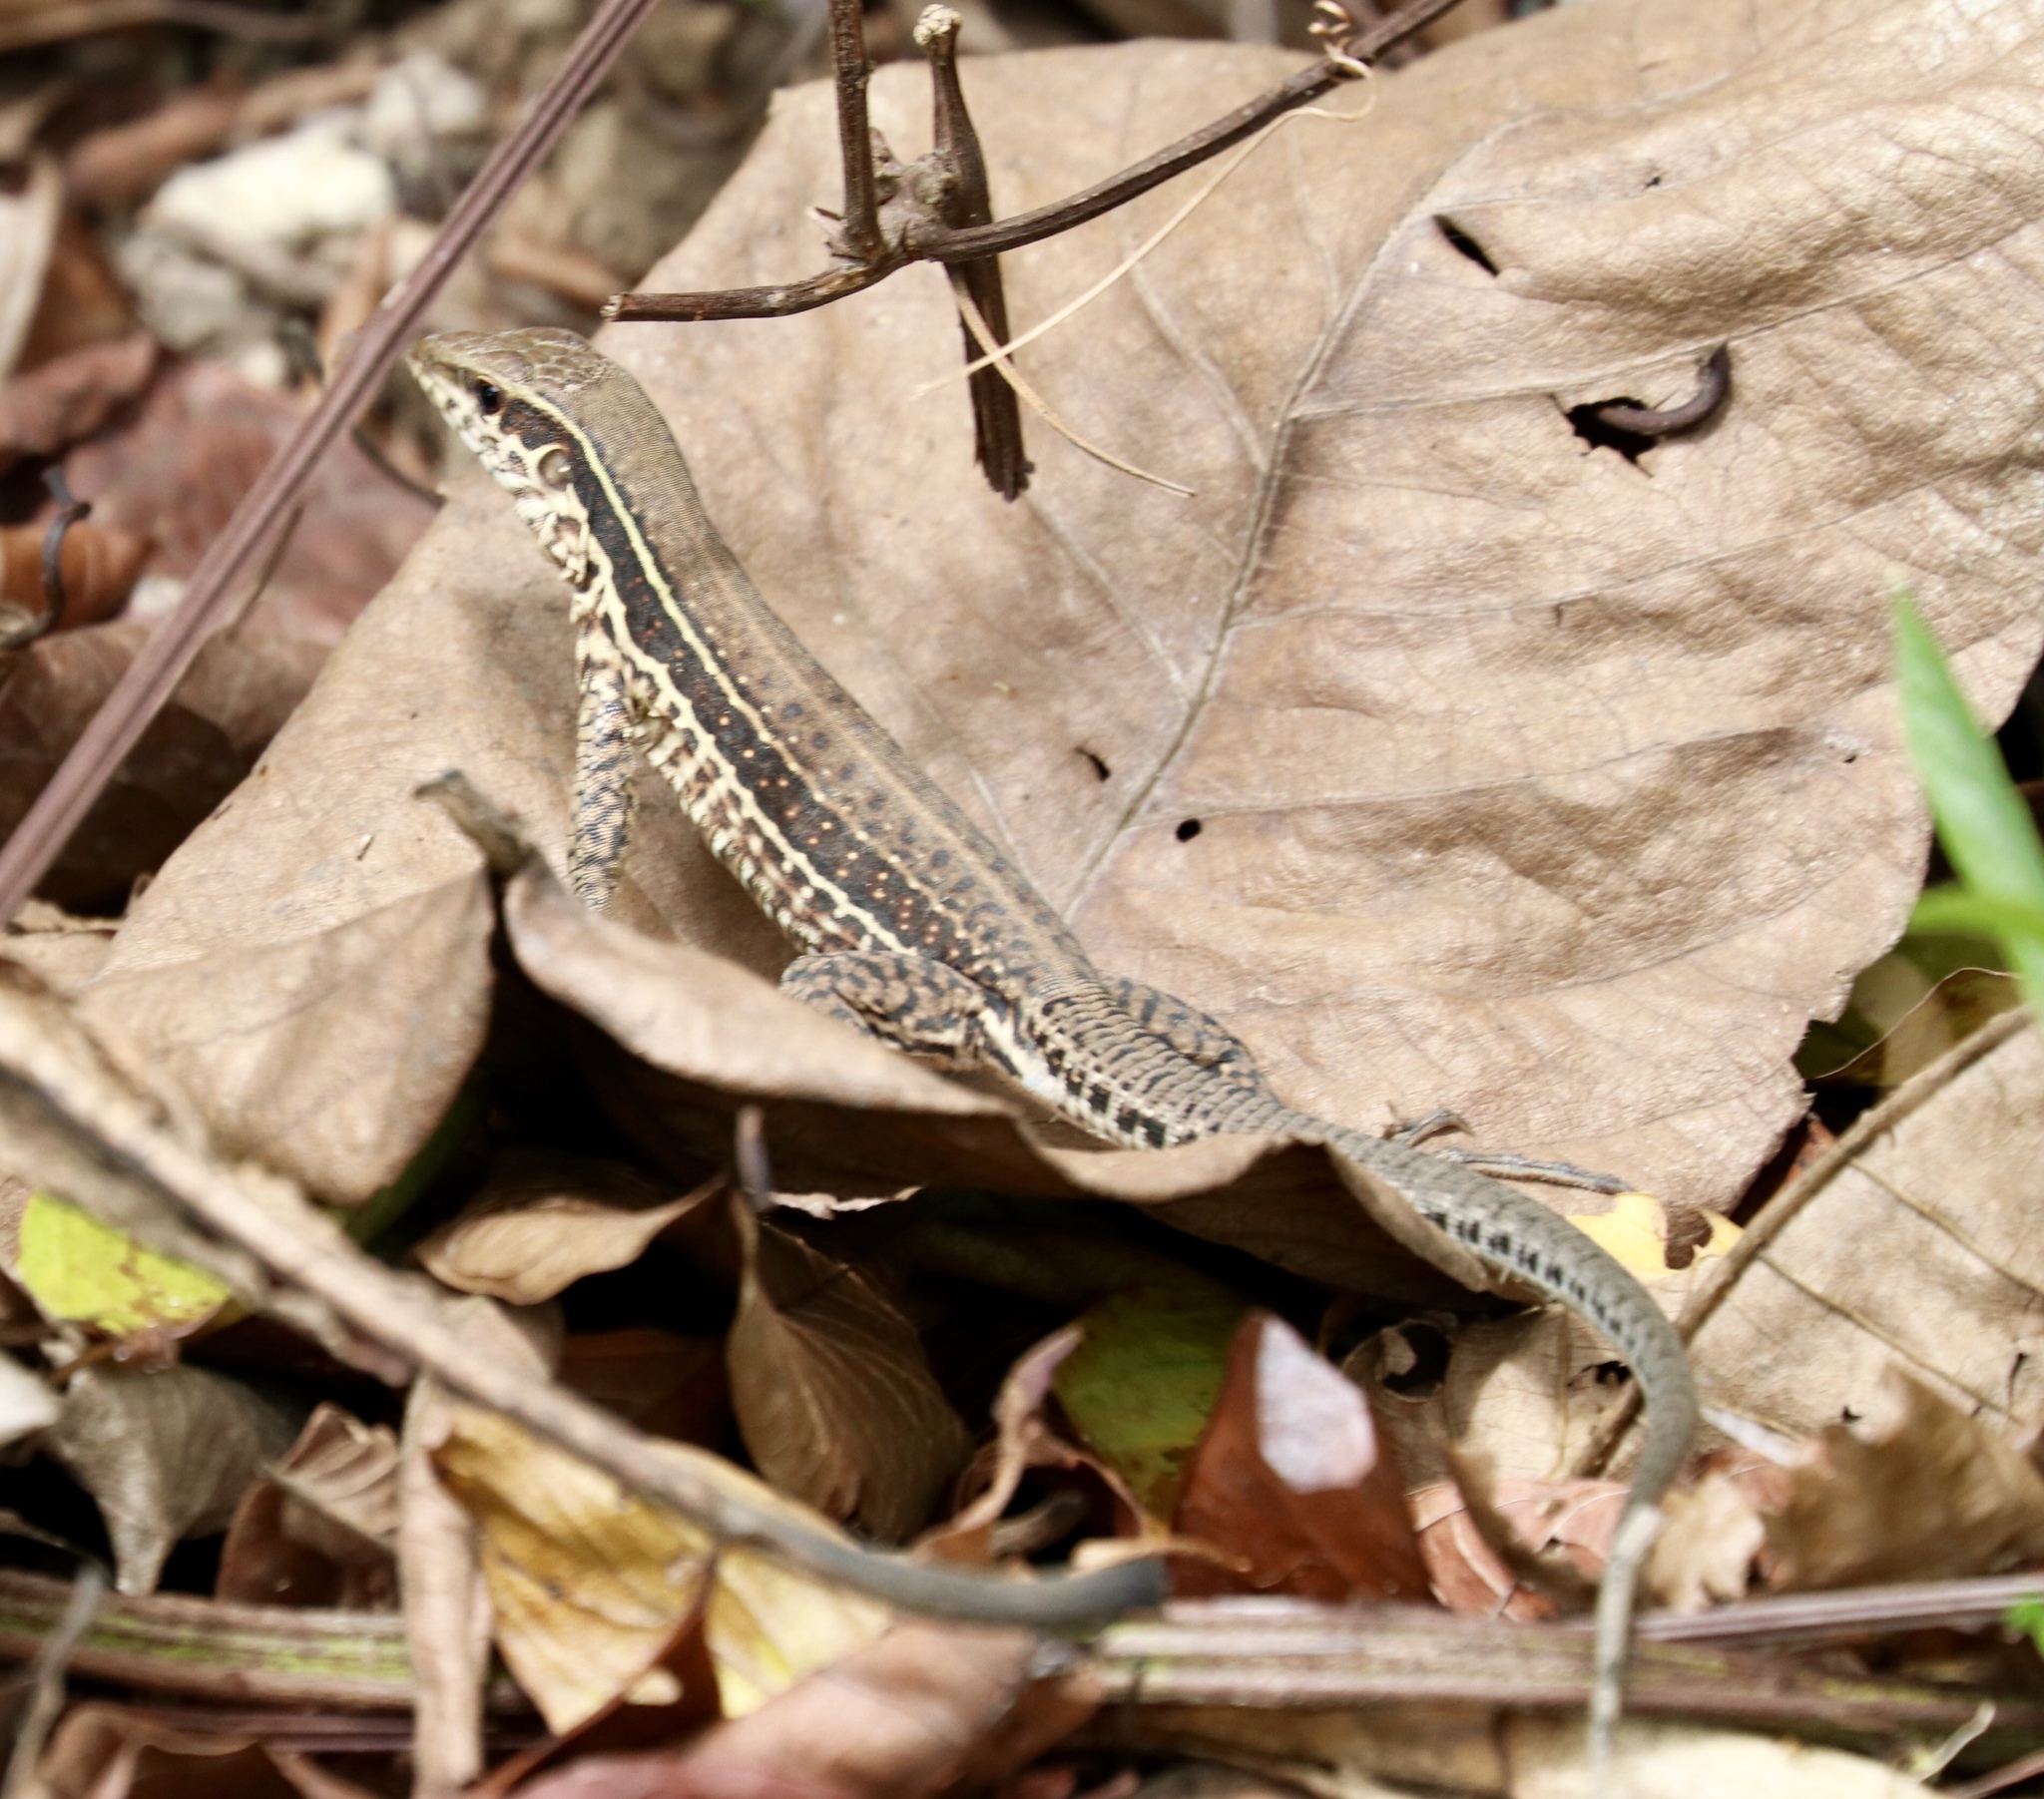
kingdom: Animalia
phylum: Chordata
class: Squamata
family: Teiidae
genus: Holcosus
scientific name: Holcosus festivus
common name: Middle american ameiva
